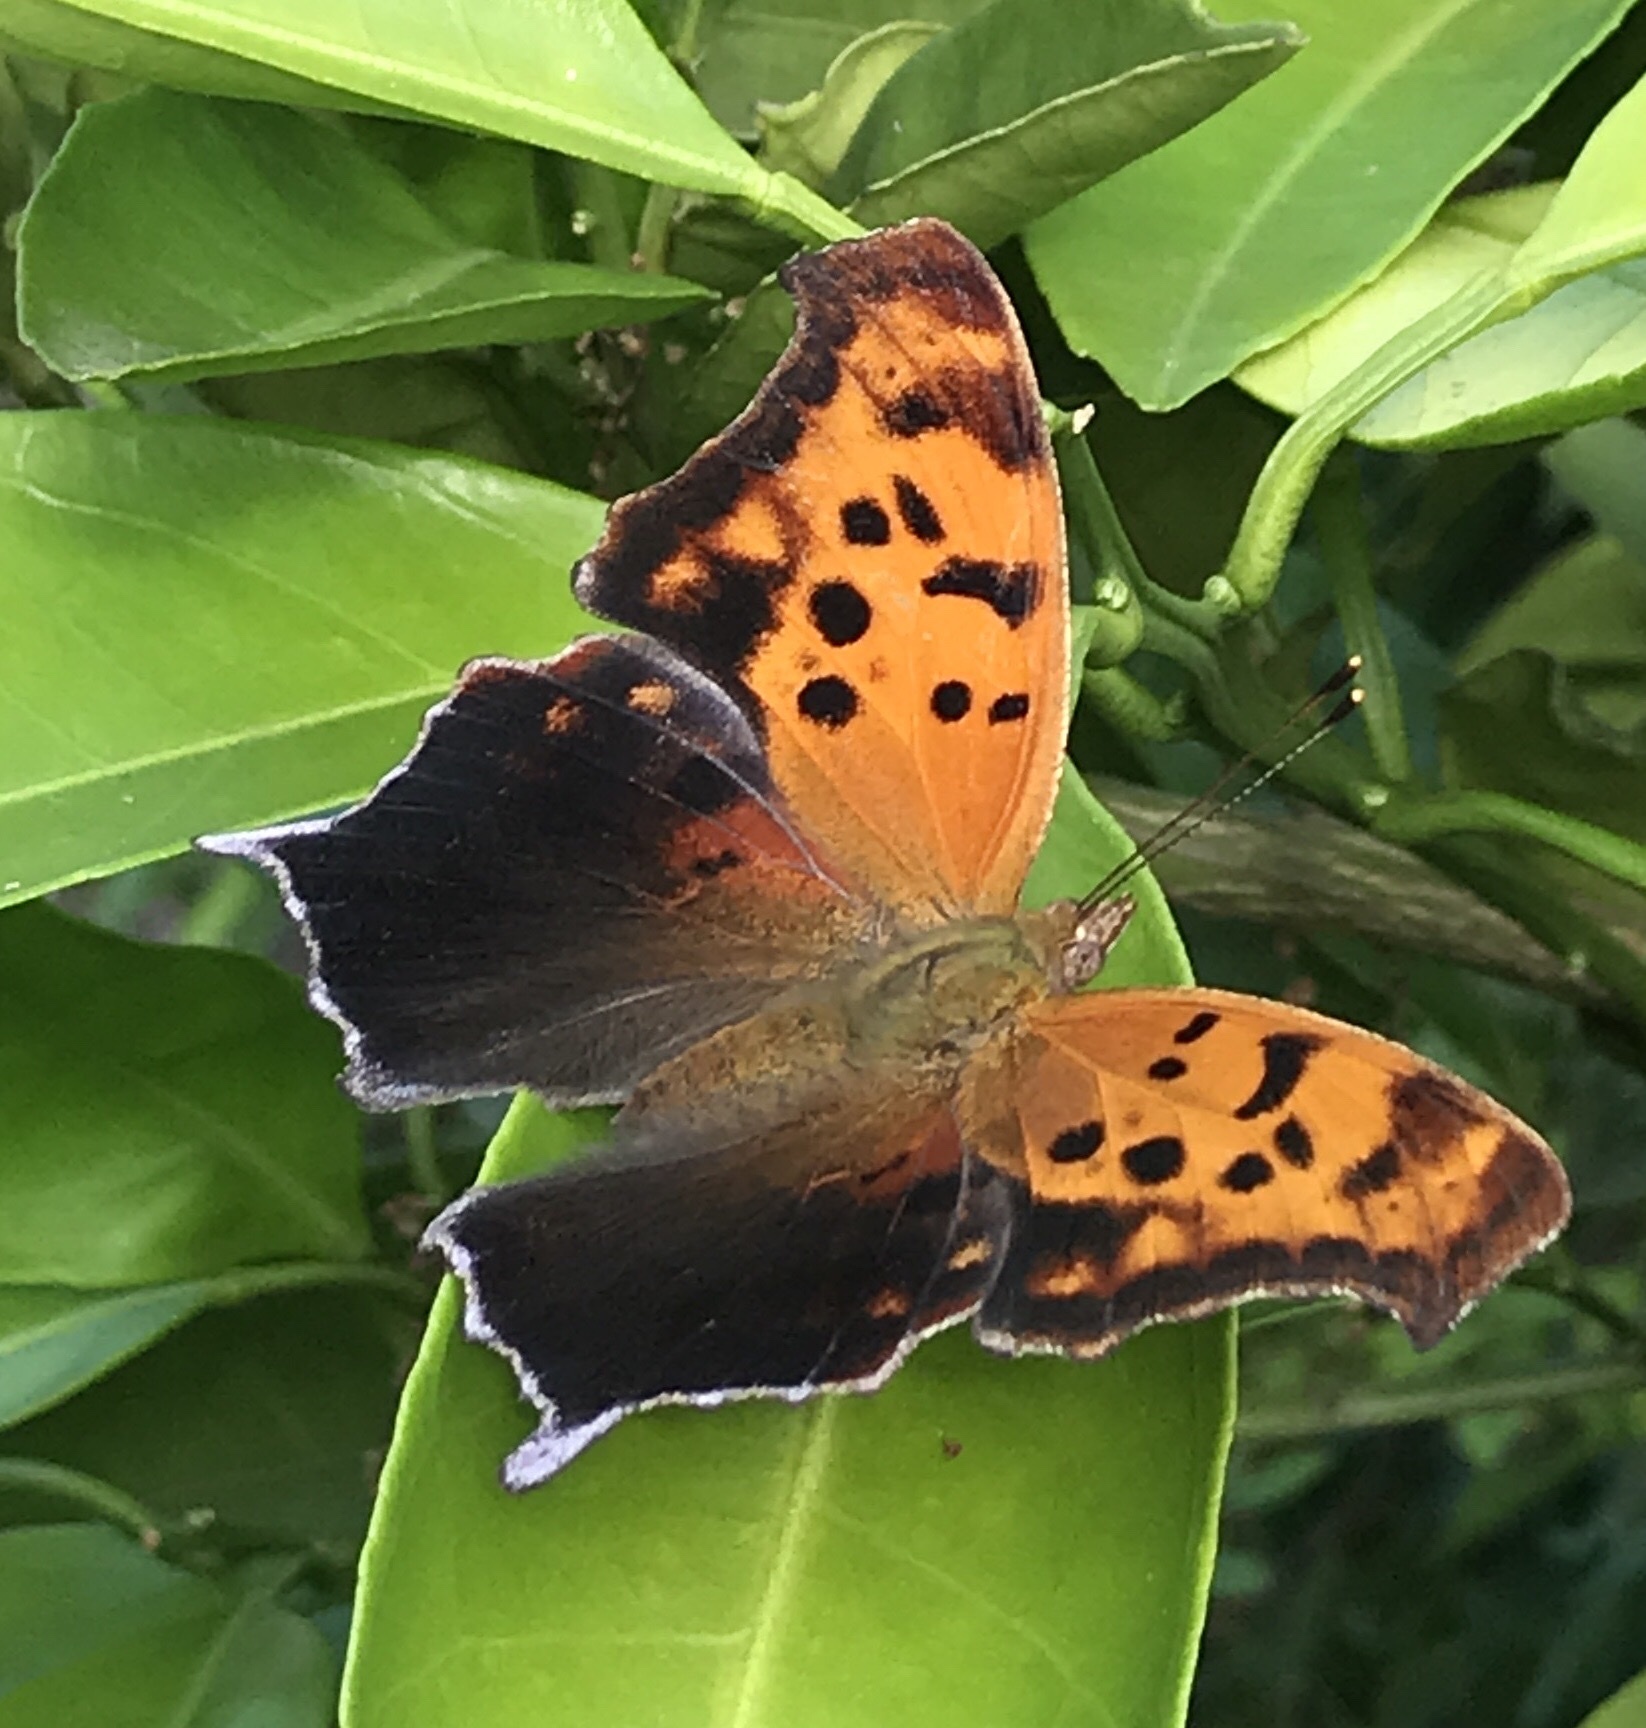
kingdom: Animalia
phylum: Arthropoda
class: Insecta
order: Lepidoptera
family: Nymphalidae
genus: Polygonia
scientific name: Polygonia interrogationis
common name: Question mark
